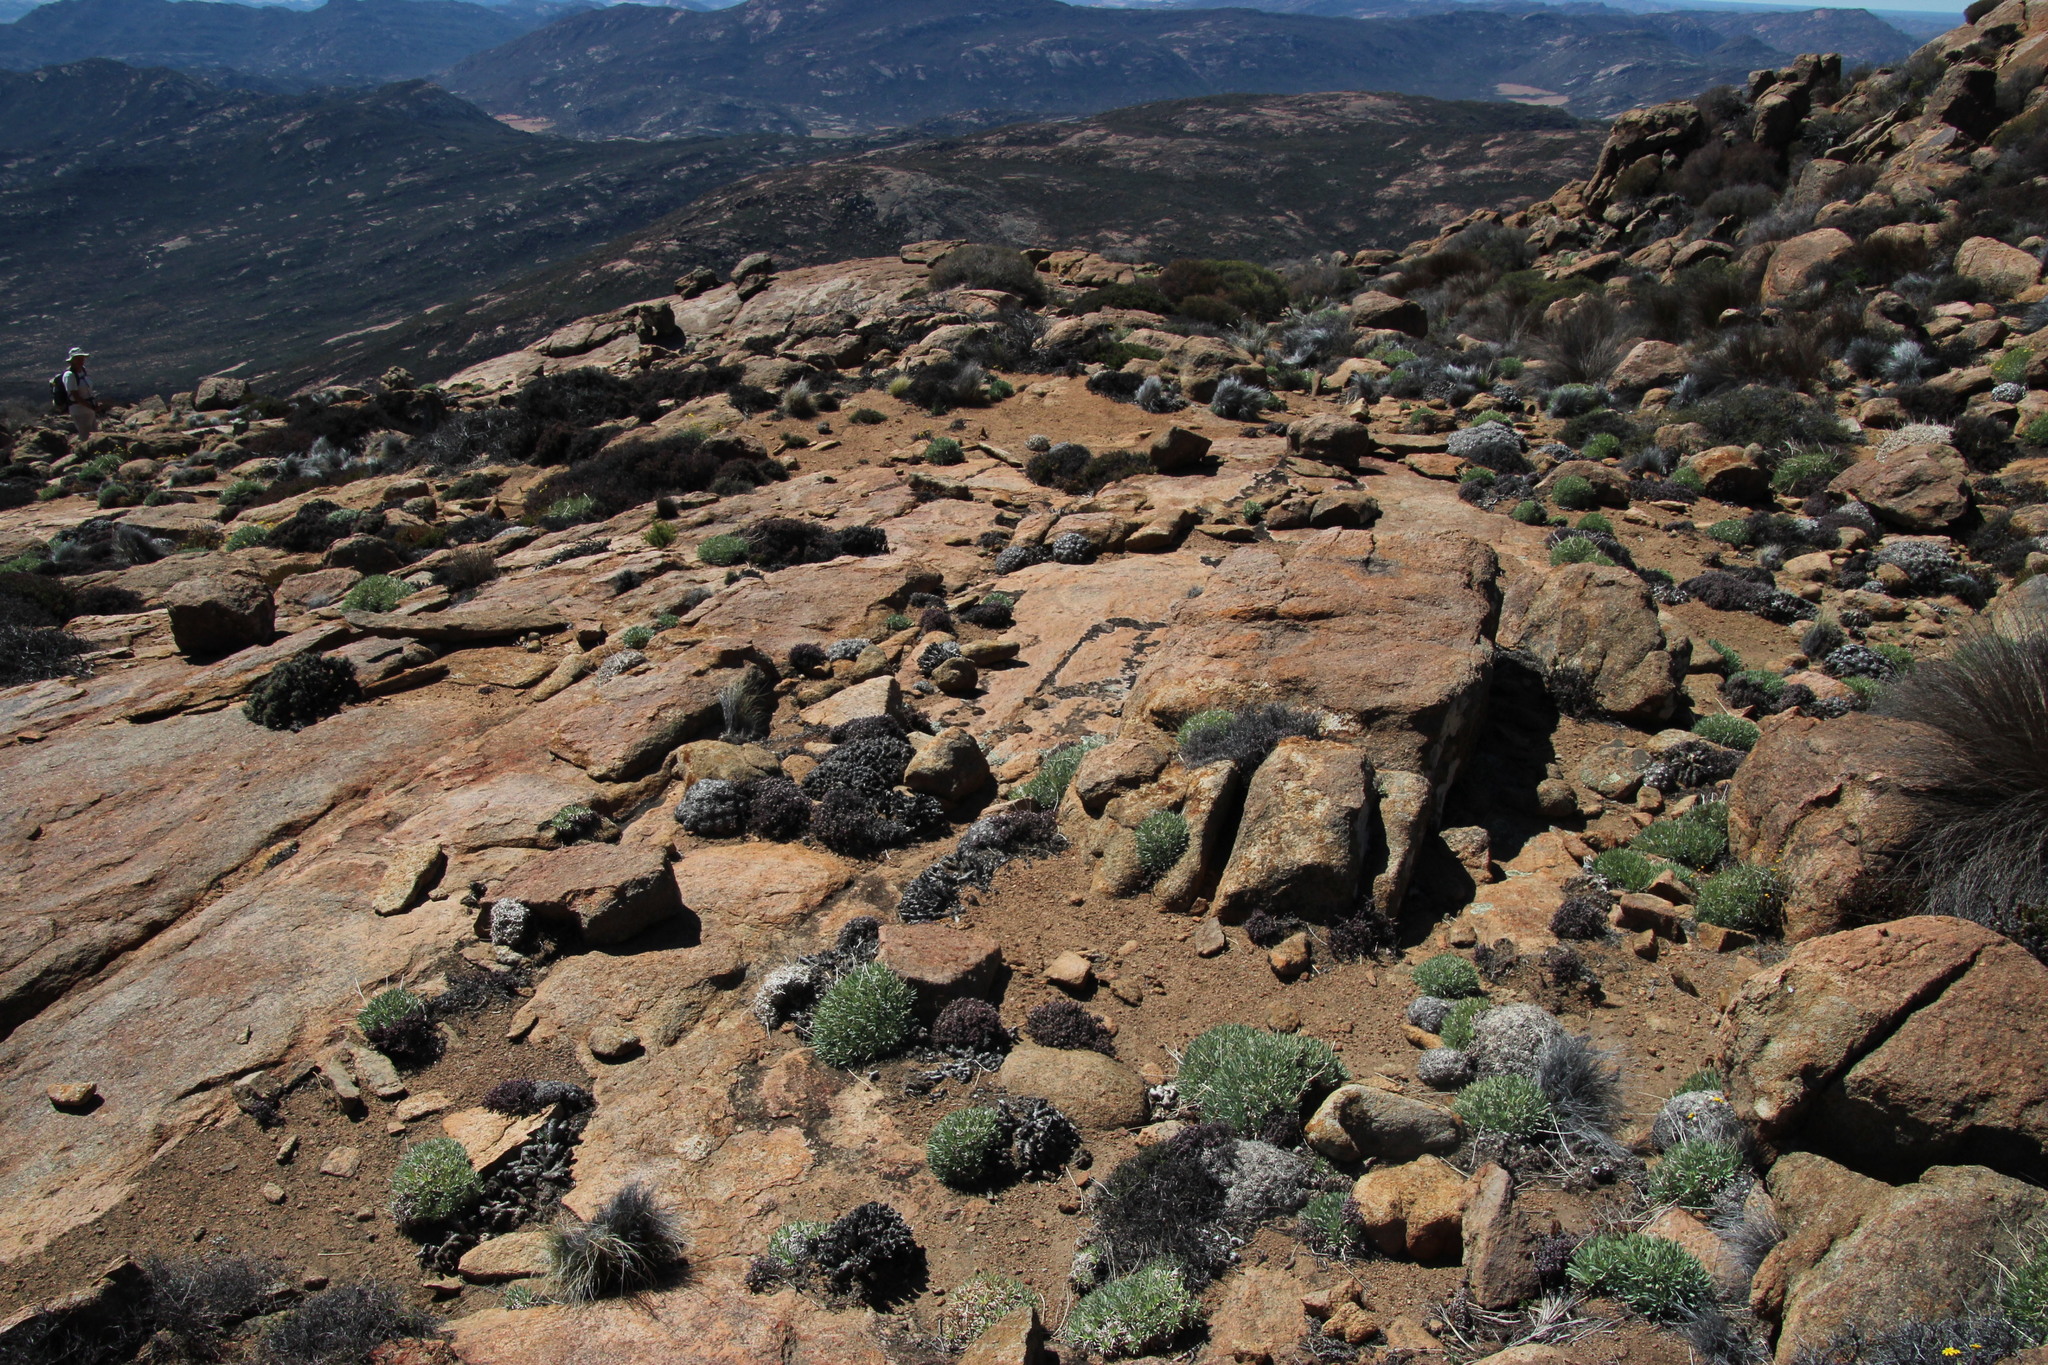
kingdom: Plantae
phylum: Tracheophyta
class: Magnoliopsida
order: Asterales
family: Asteraceae
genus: Othonna
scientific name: Othonna retrorsa
